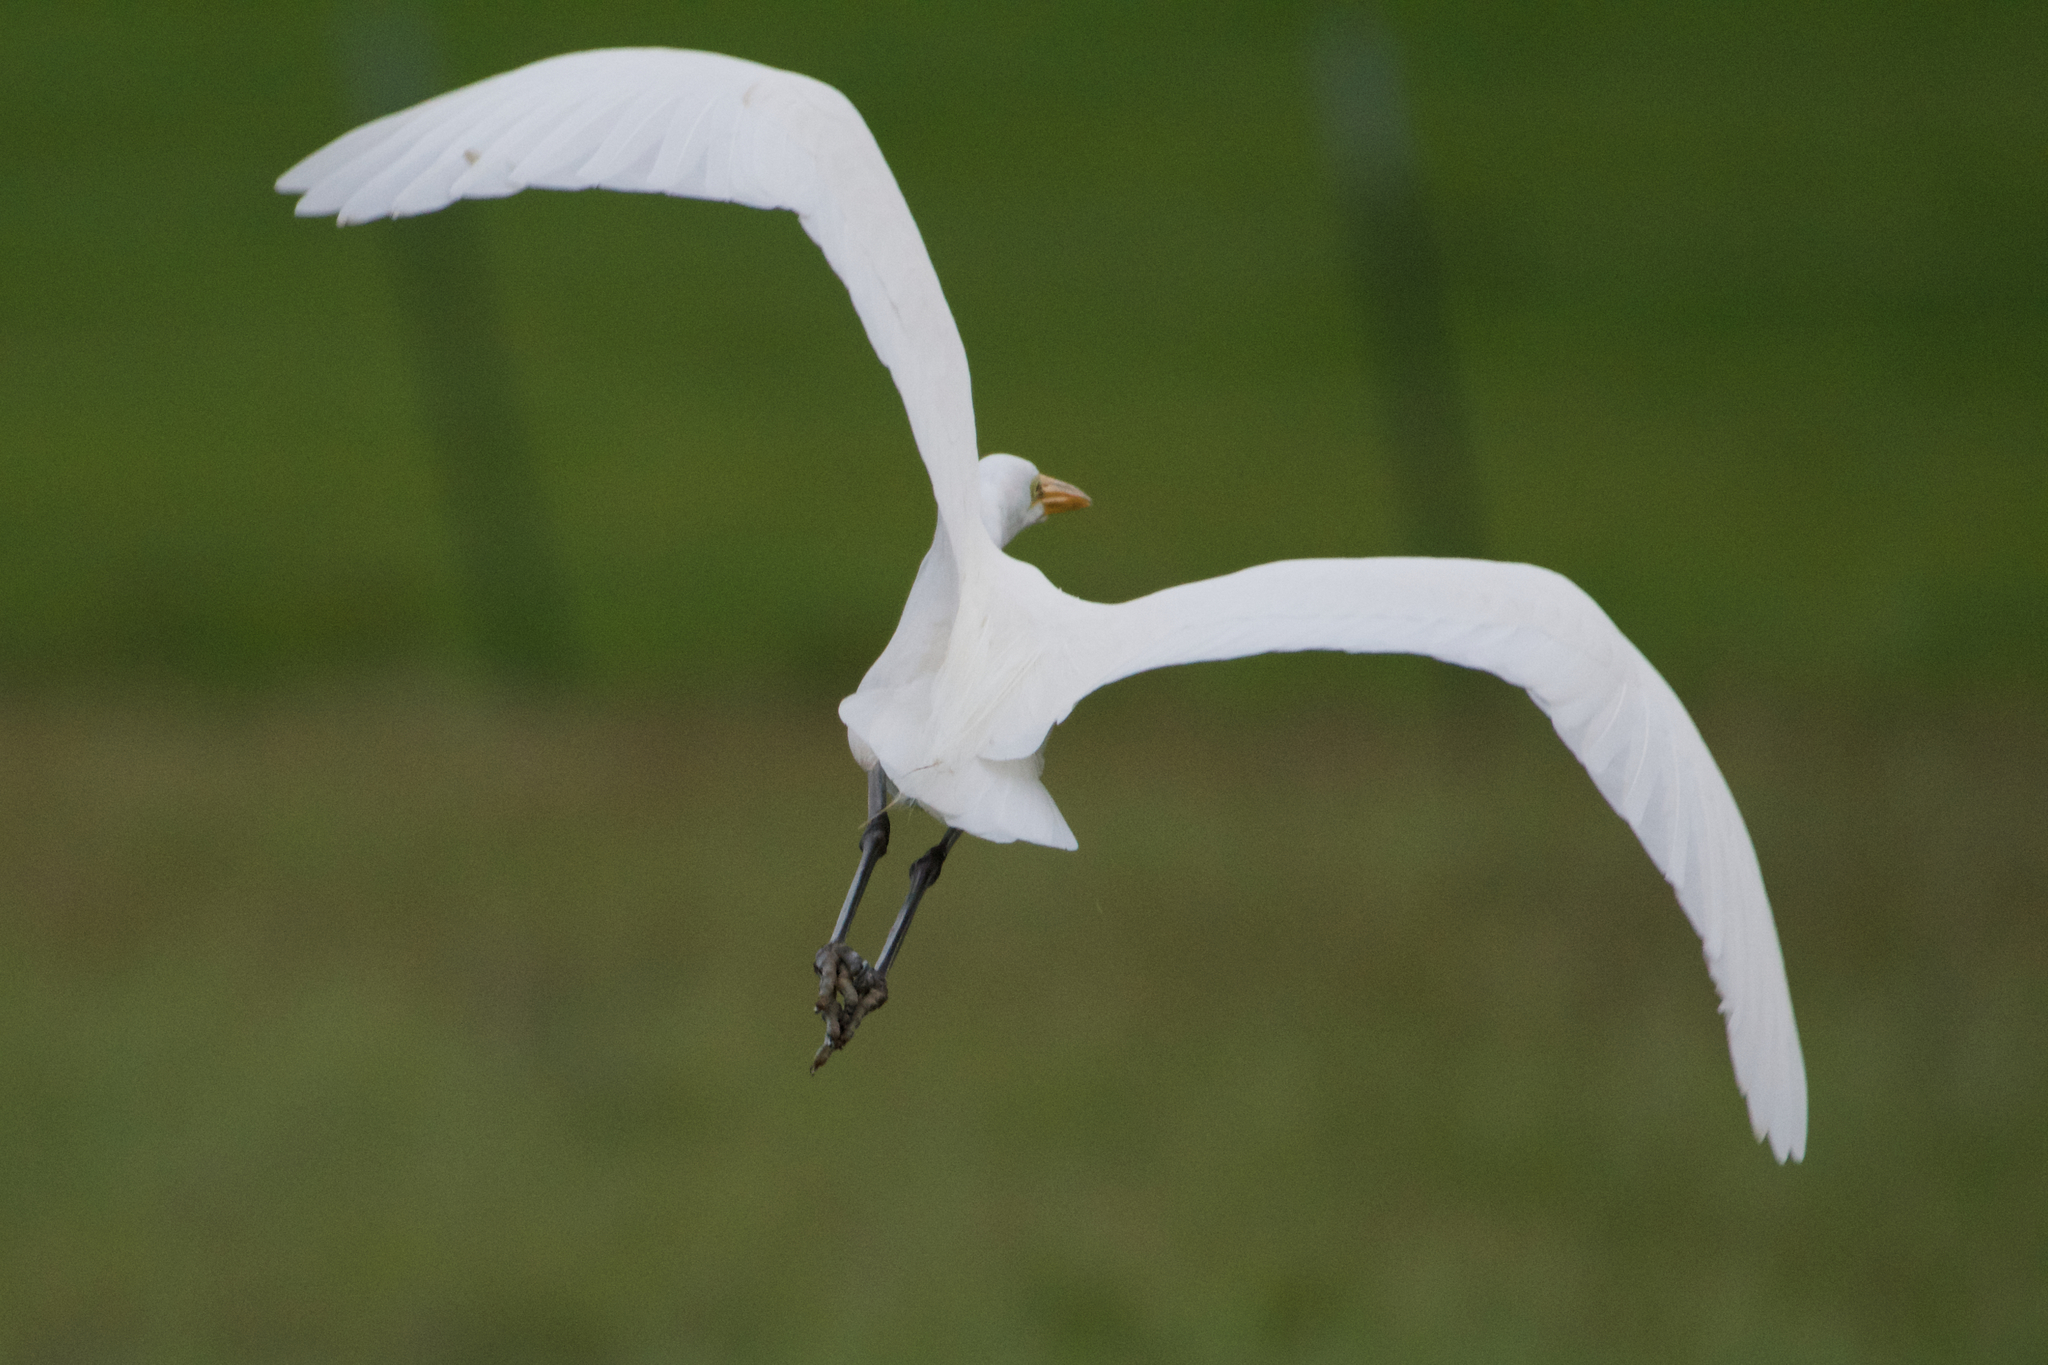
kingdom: Animalia
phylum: Chordata
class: Aves
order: Pelecaniformes
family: Ardeidae
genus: Ardea
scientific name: Ardea alba
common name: Great egret
